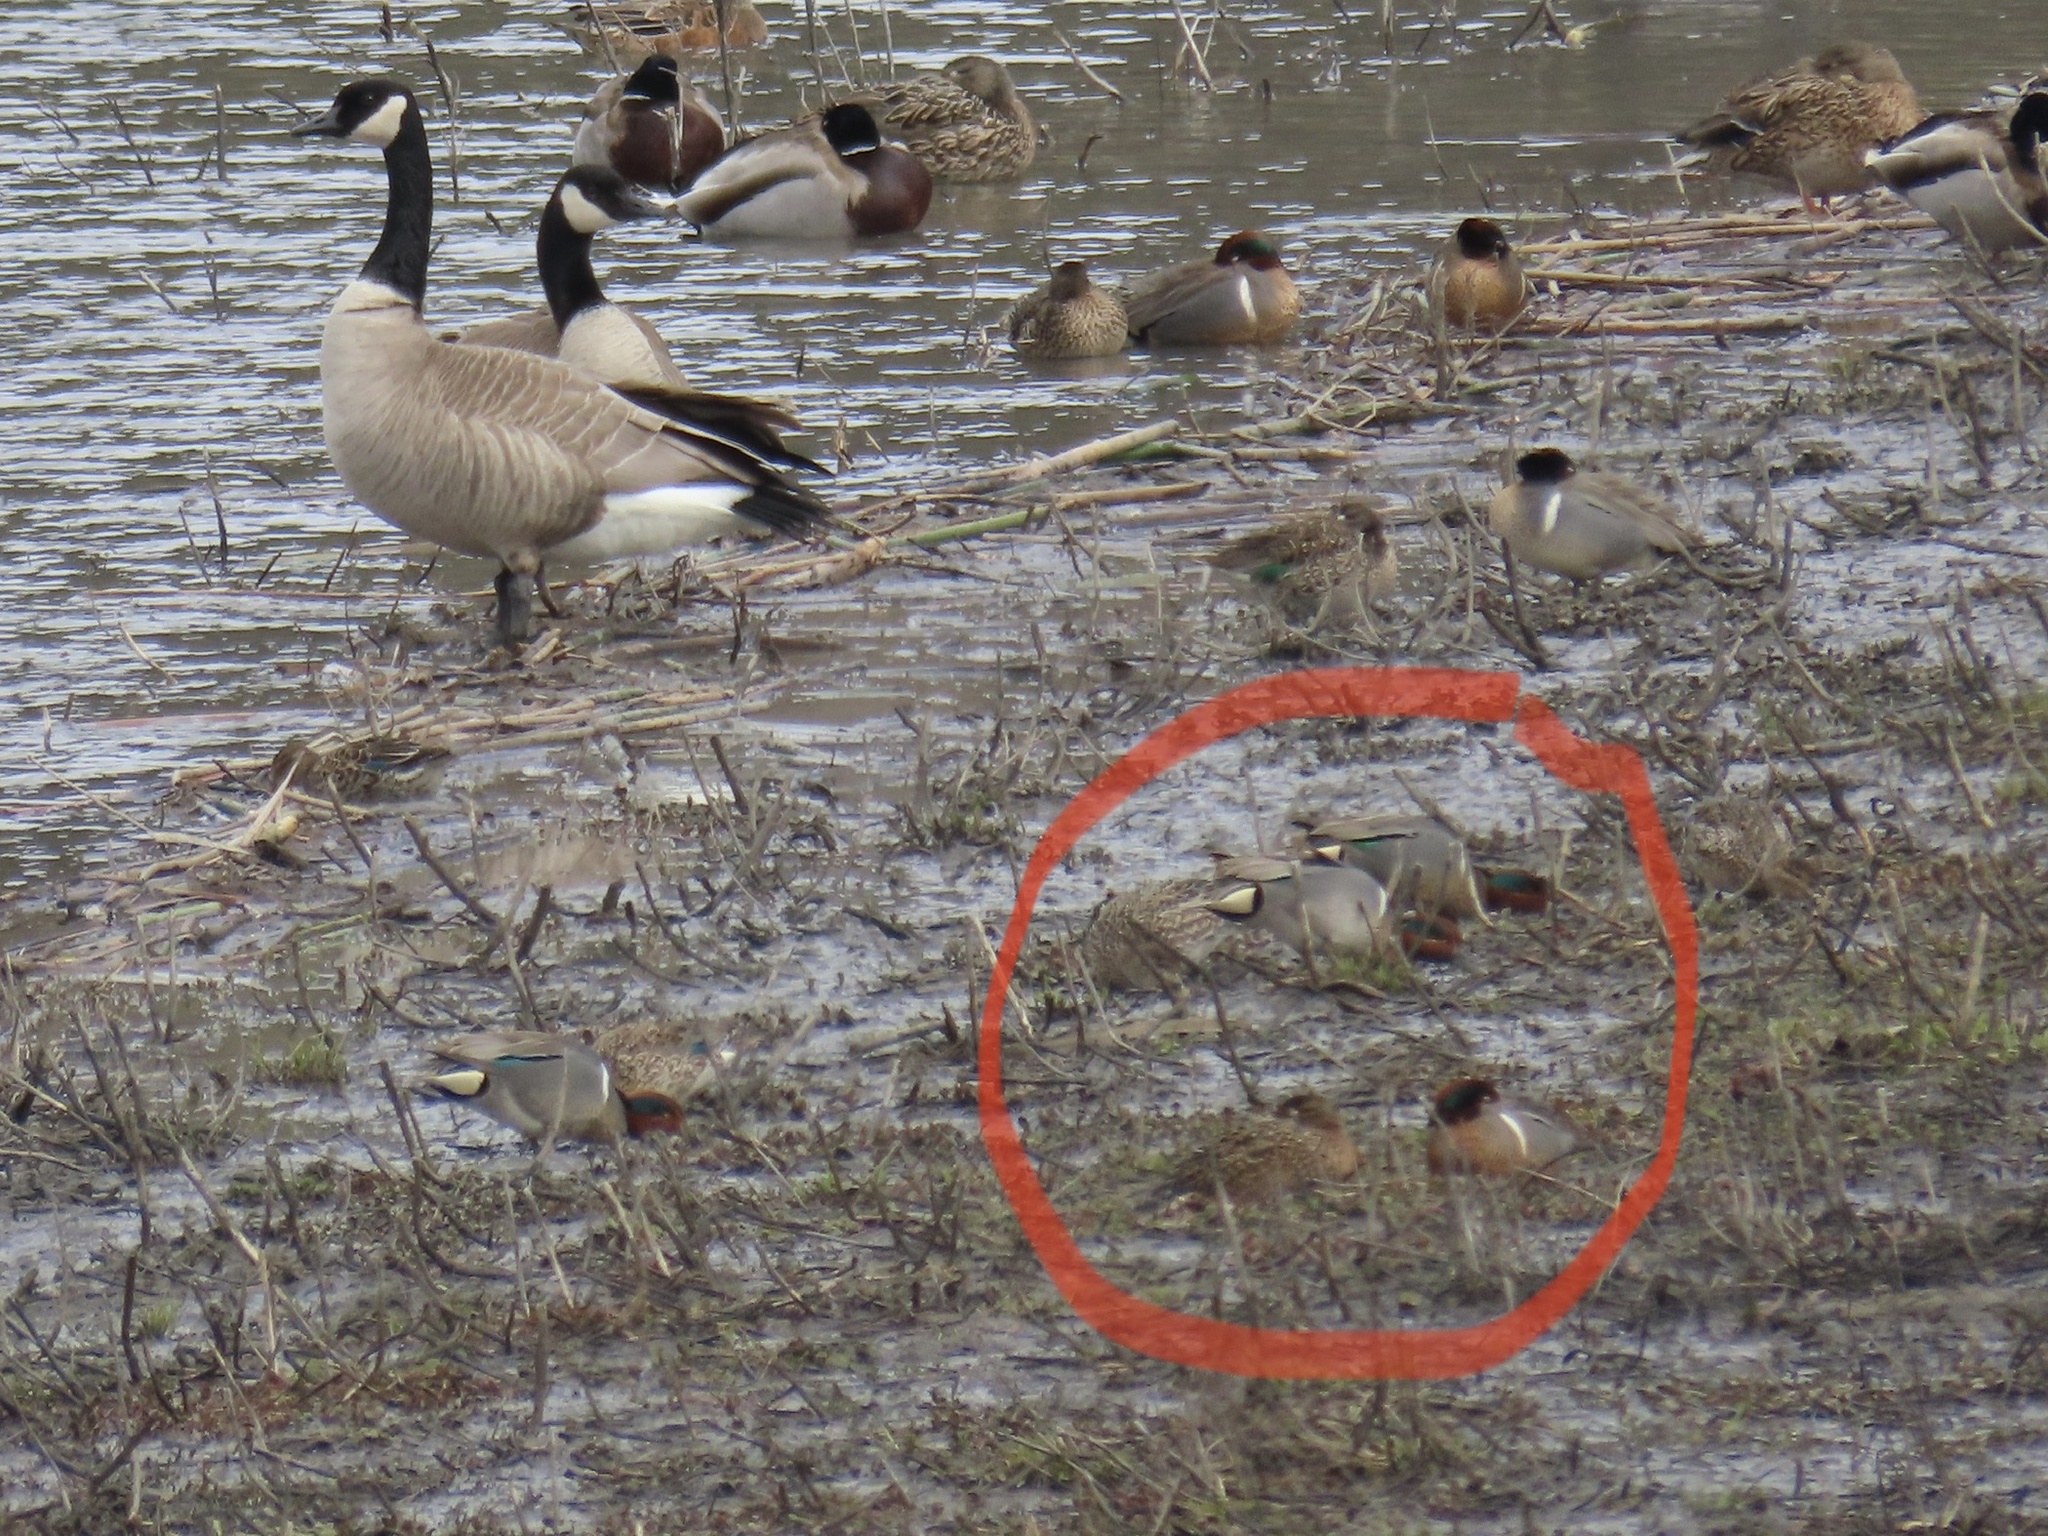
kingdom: Animalia
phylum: Chordata
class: Aves
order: Anseriformes
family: Anatidae
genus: Anas
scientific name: Anas crecca
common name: Eurasian teal
